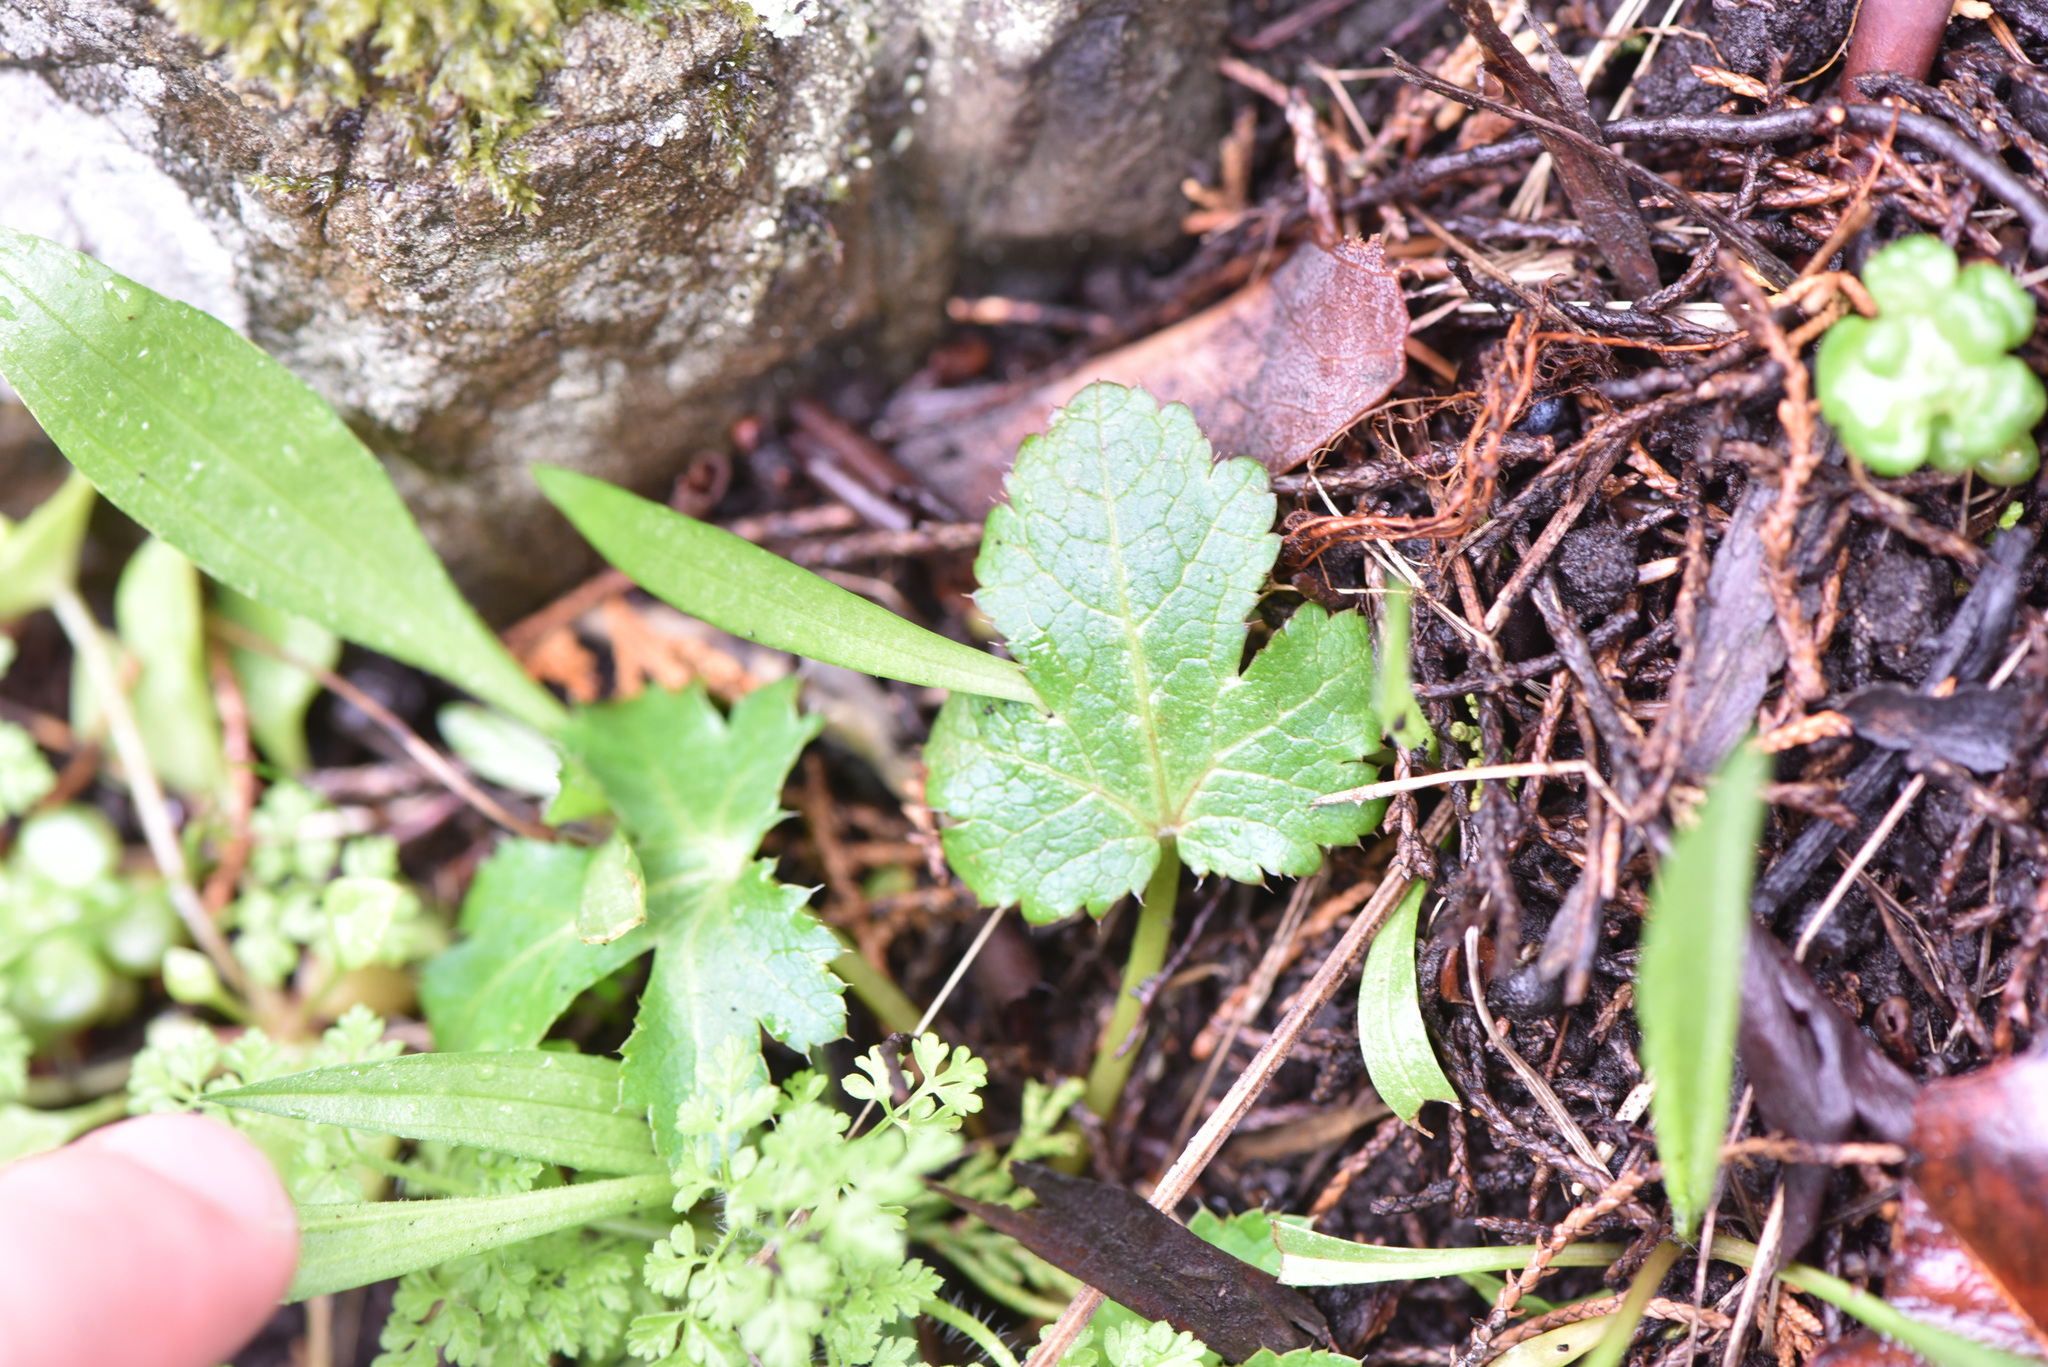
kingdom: Plantae
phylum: Tracheophyta
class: Magnoliopsida
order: Apiales
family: Apiaceae
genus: Sanicula
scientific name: Sanicula crassicaulis
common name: Western snakeroot
